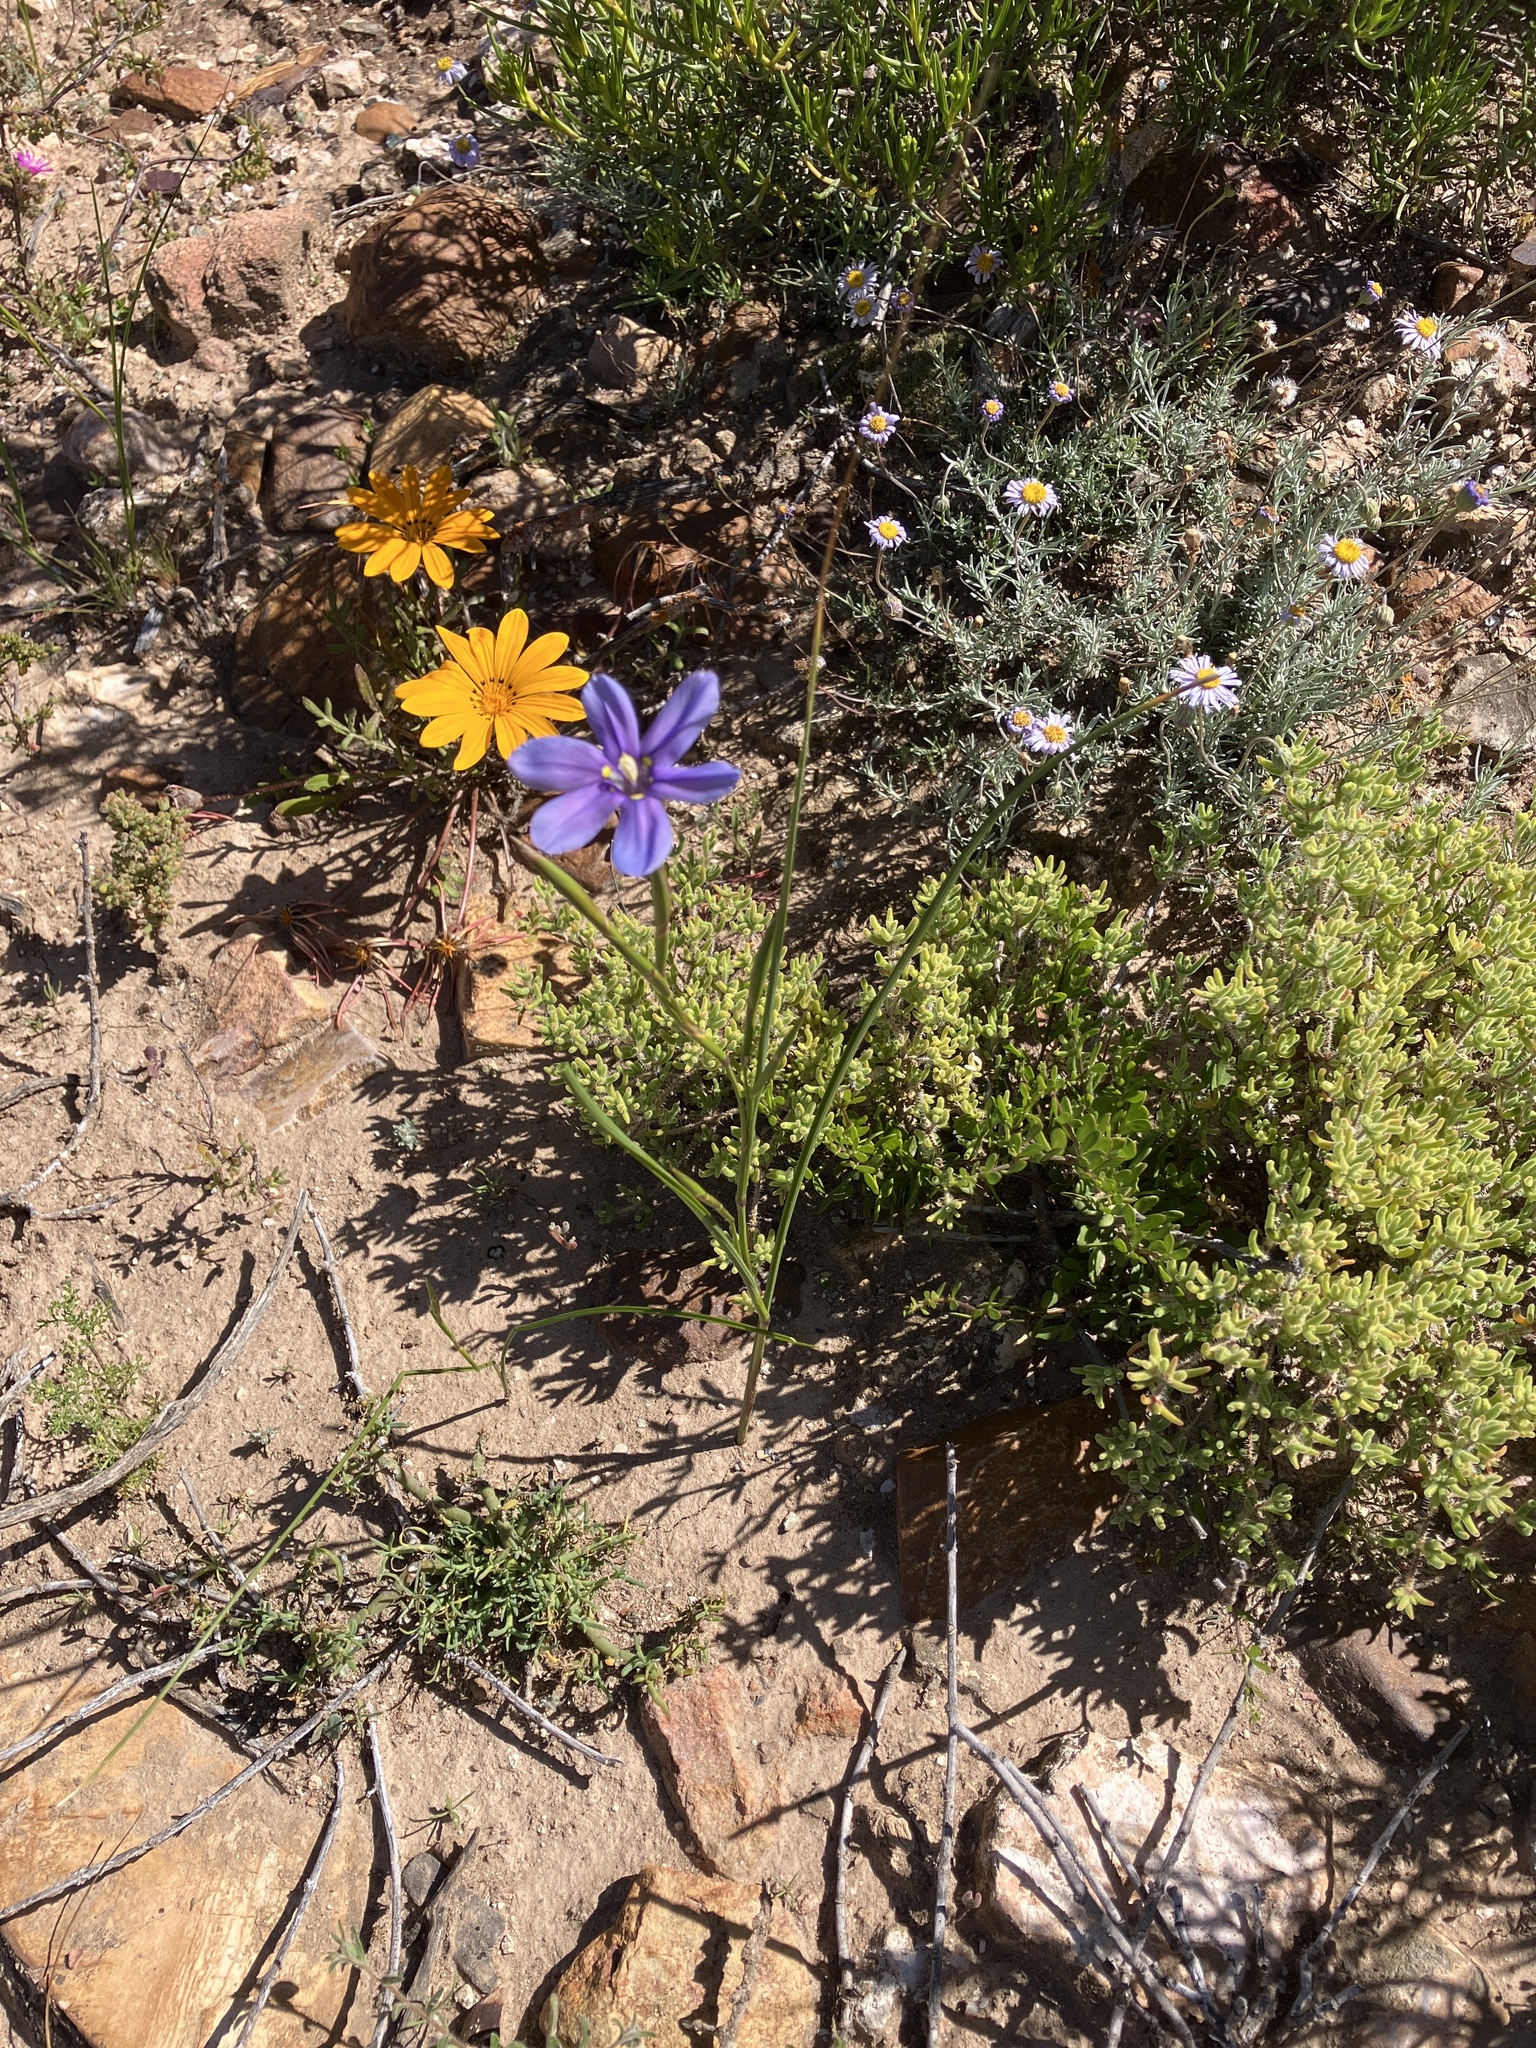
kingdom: Plantae
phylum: Tracheophyta
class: Liliopsida
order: Asparagales
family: Iridaceae
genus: Moraea
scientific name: Moraea polyanthos
